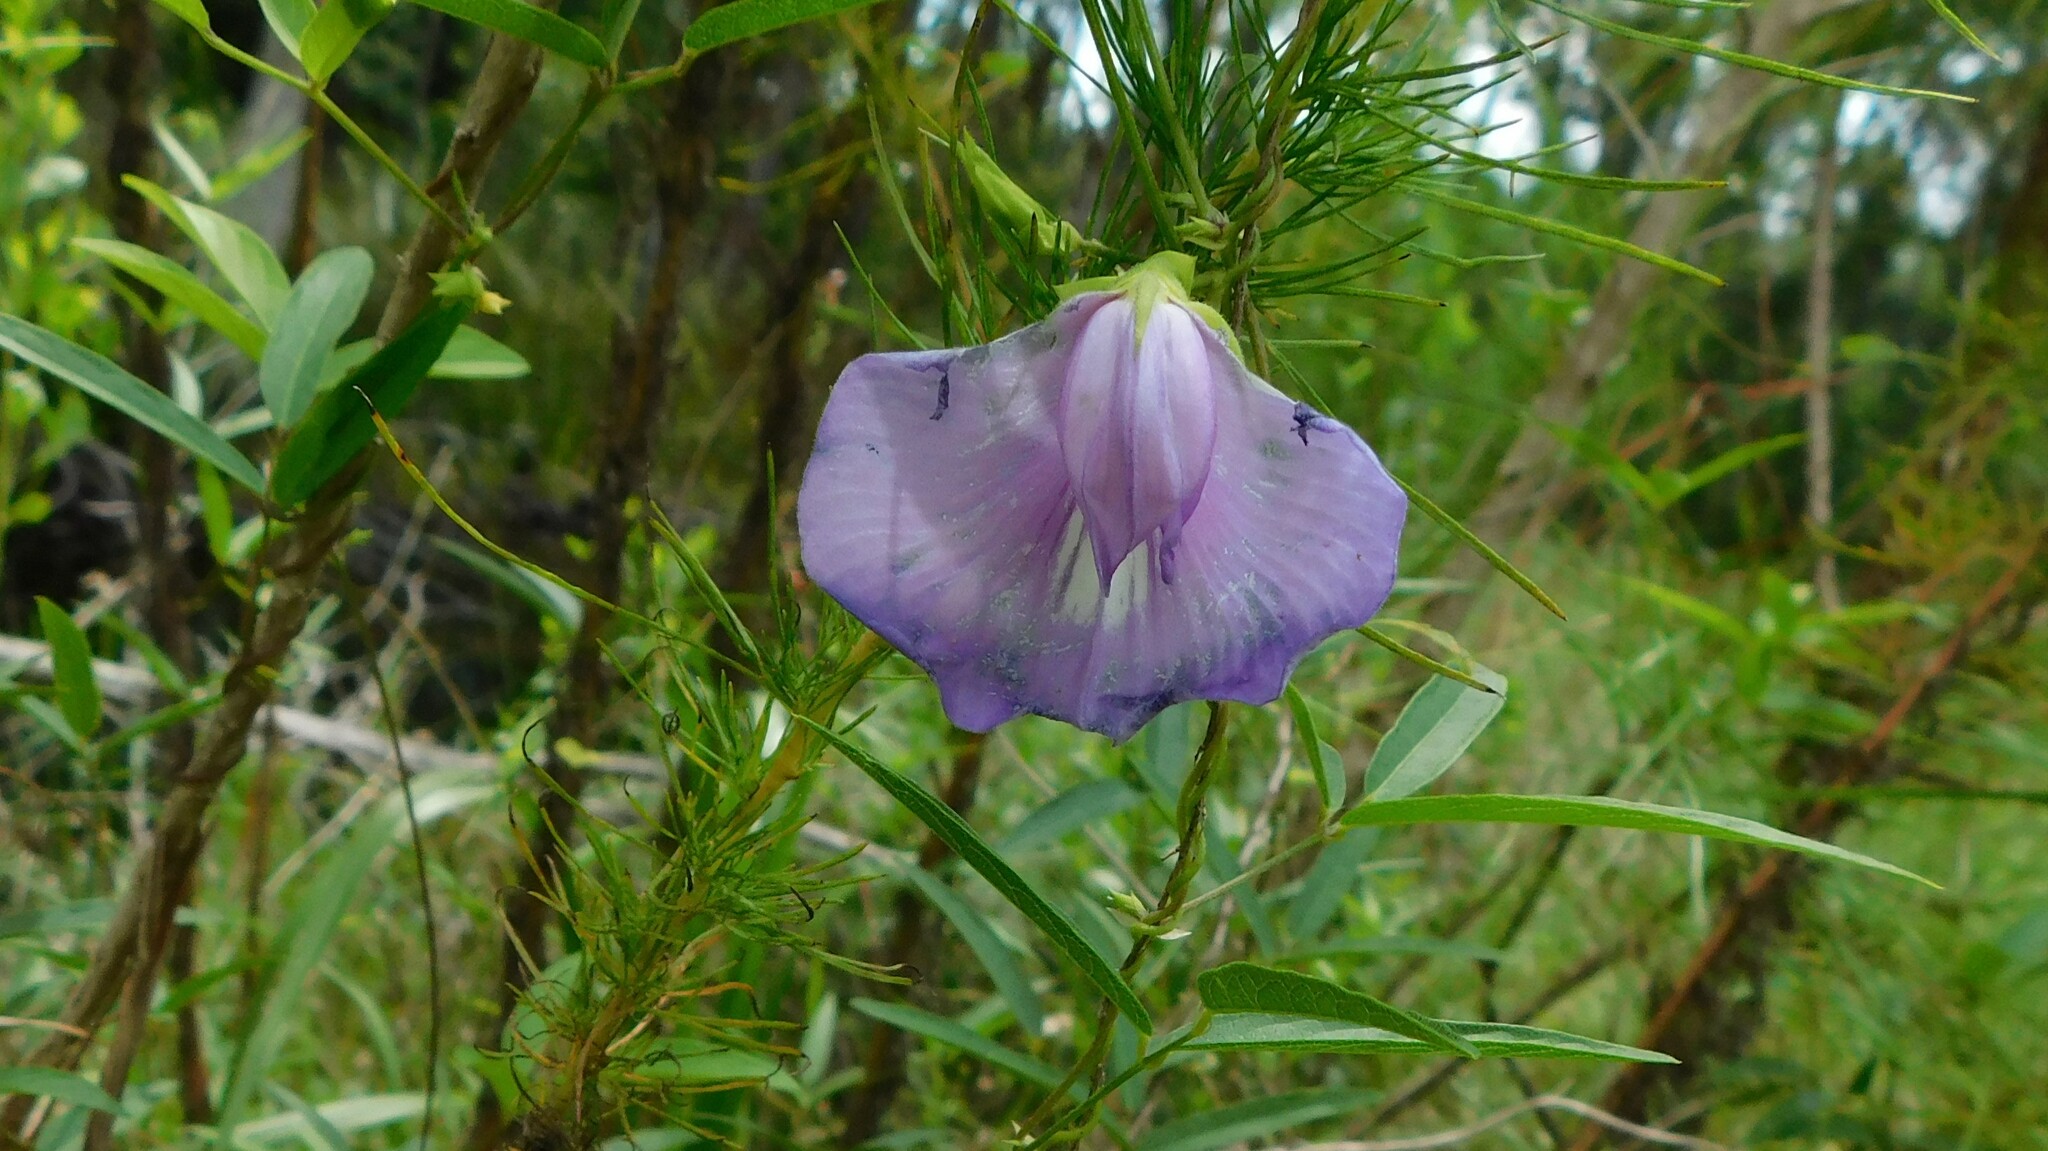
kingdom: Plantae
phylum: Tracheophyta
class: Magnoliopsida
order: Fabales
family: Fabaceae
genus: Centrosema
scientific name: Centrosema virginianum
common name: Butterfly-pea
